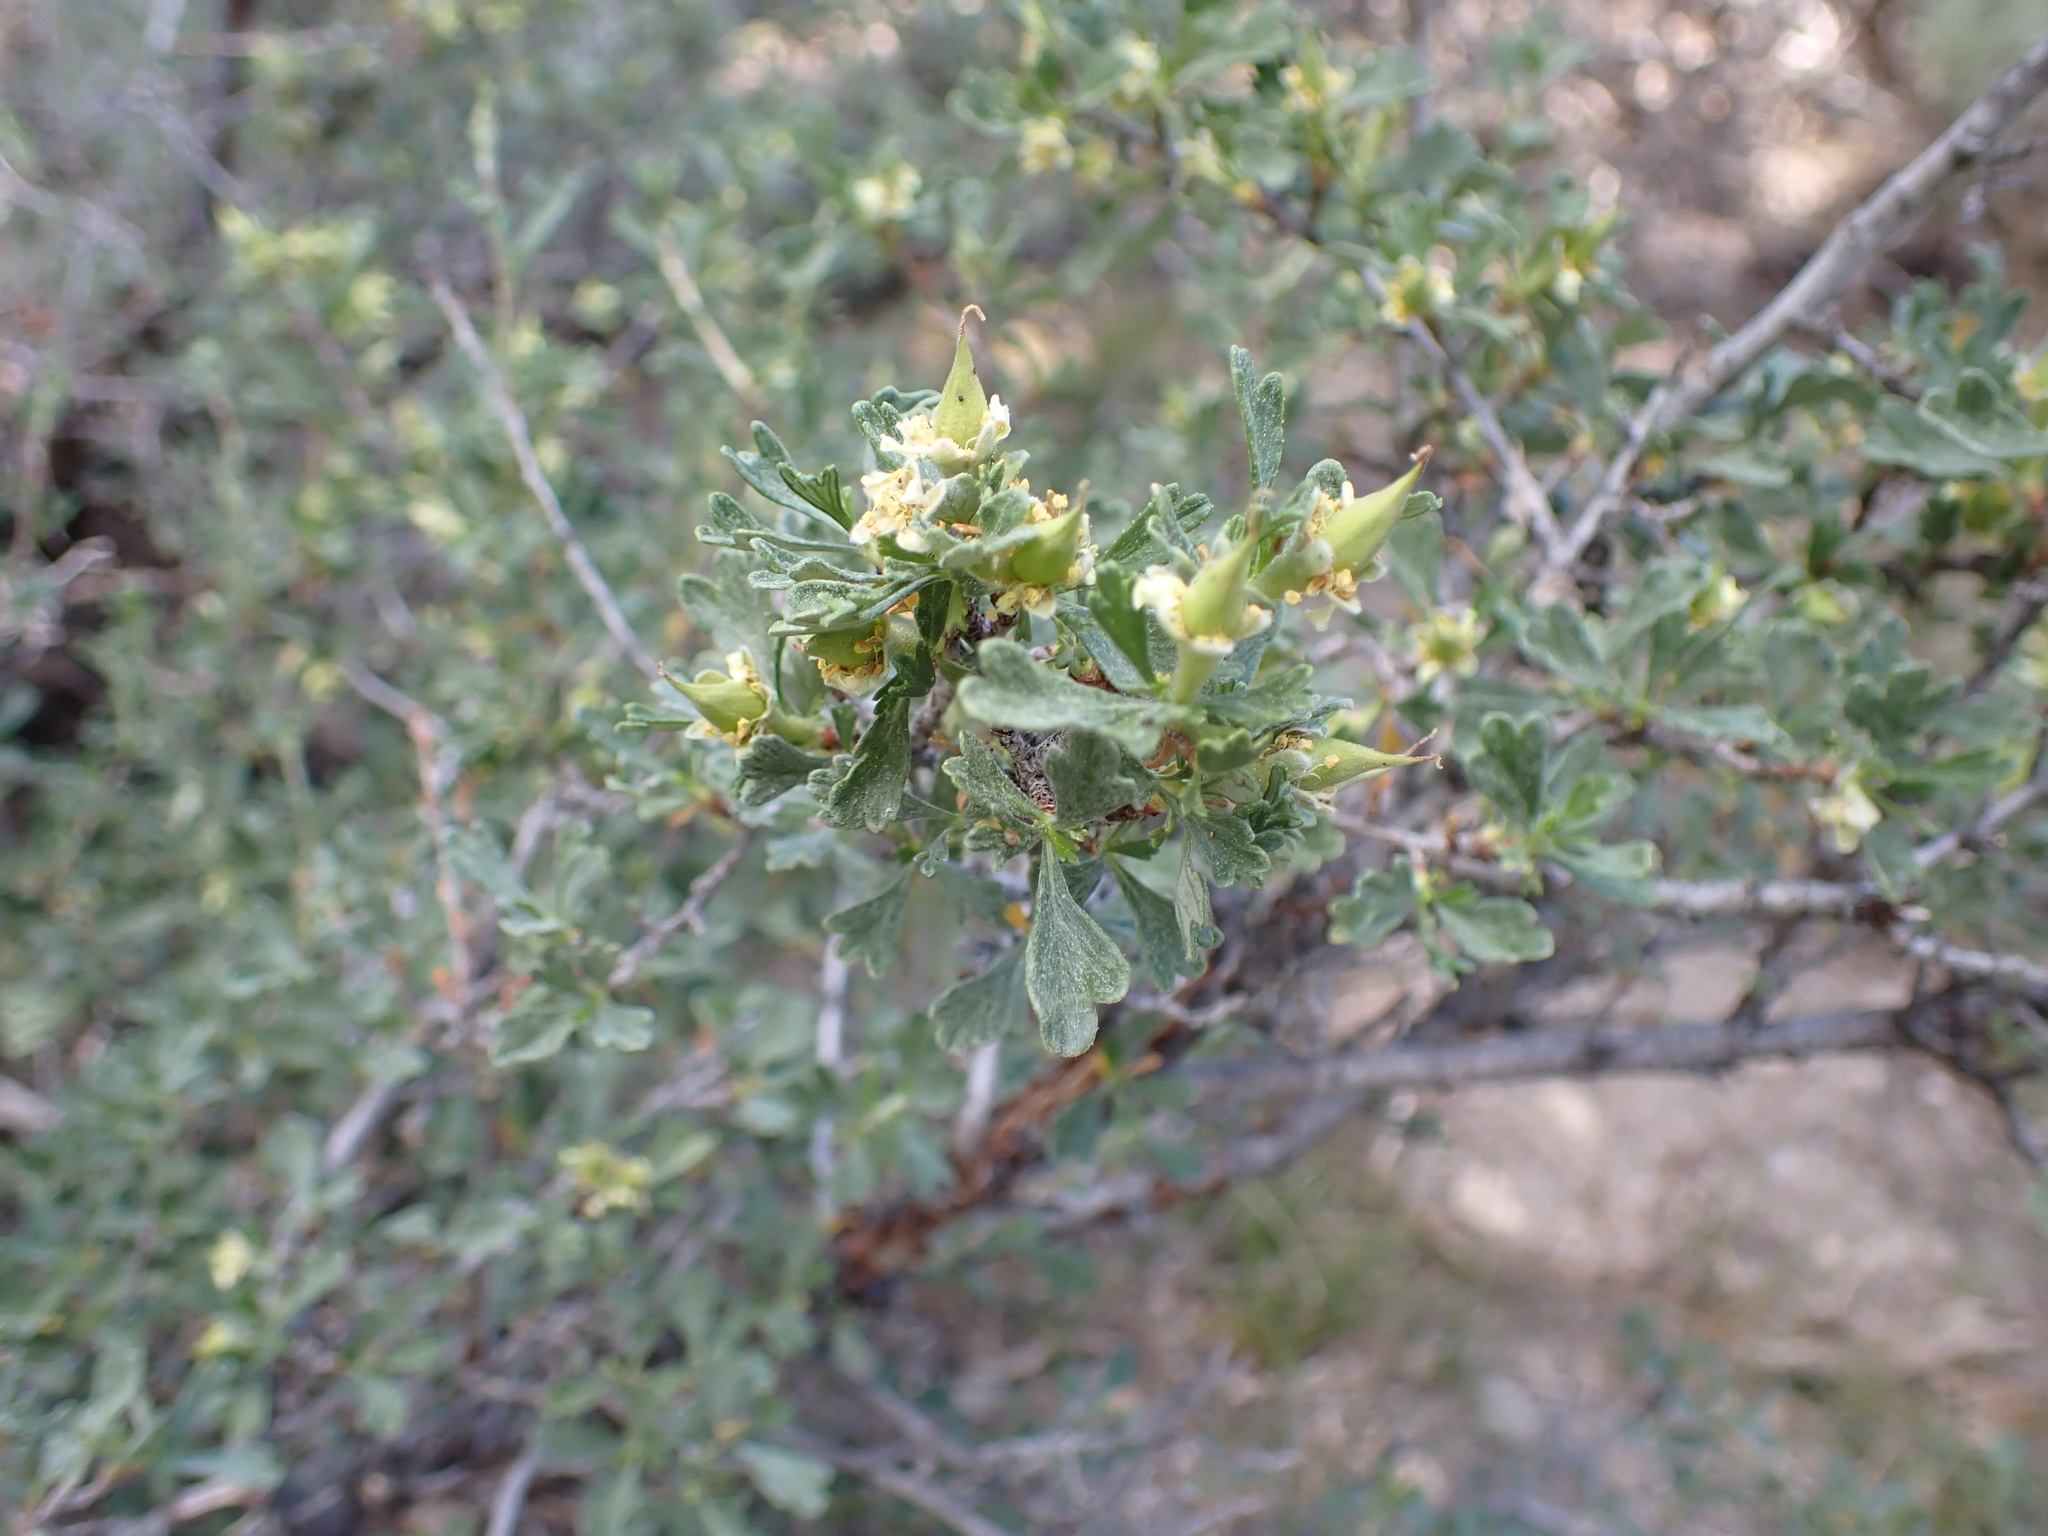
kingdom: Plantae
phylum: Tracheophyta
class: Magnoliopsida
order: Rosales
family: Rosaceae
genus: Purshia
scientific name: Purshia tridentata
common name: Antelope bitterbrush
